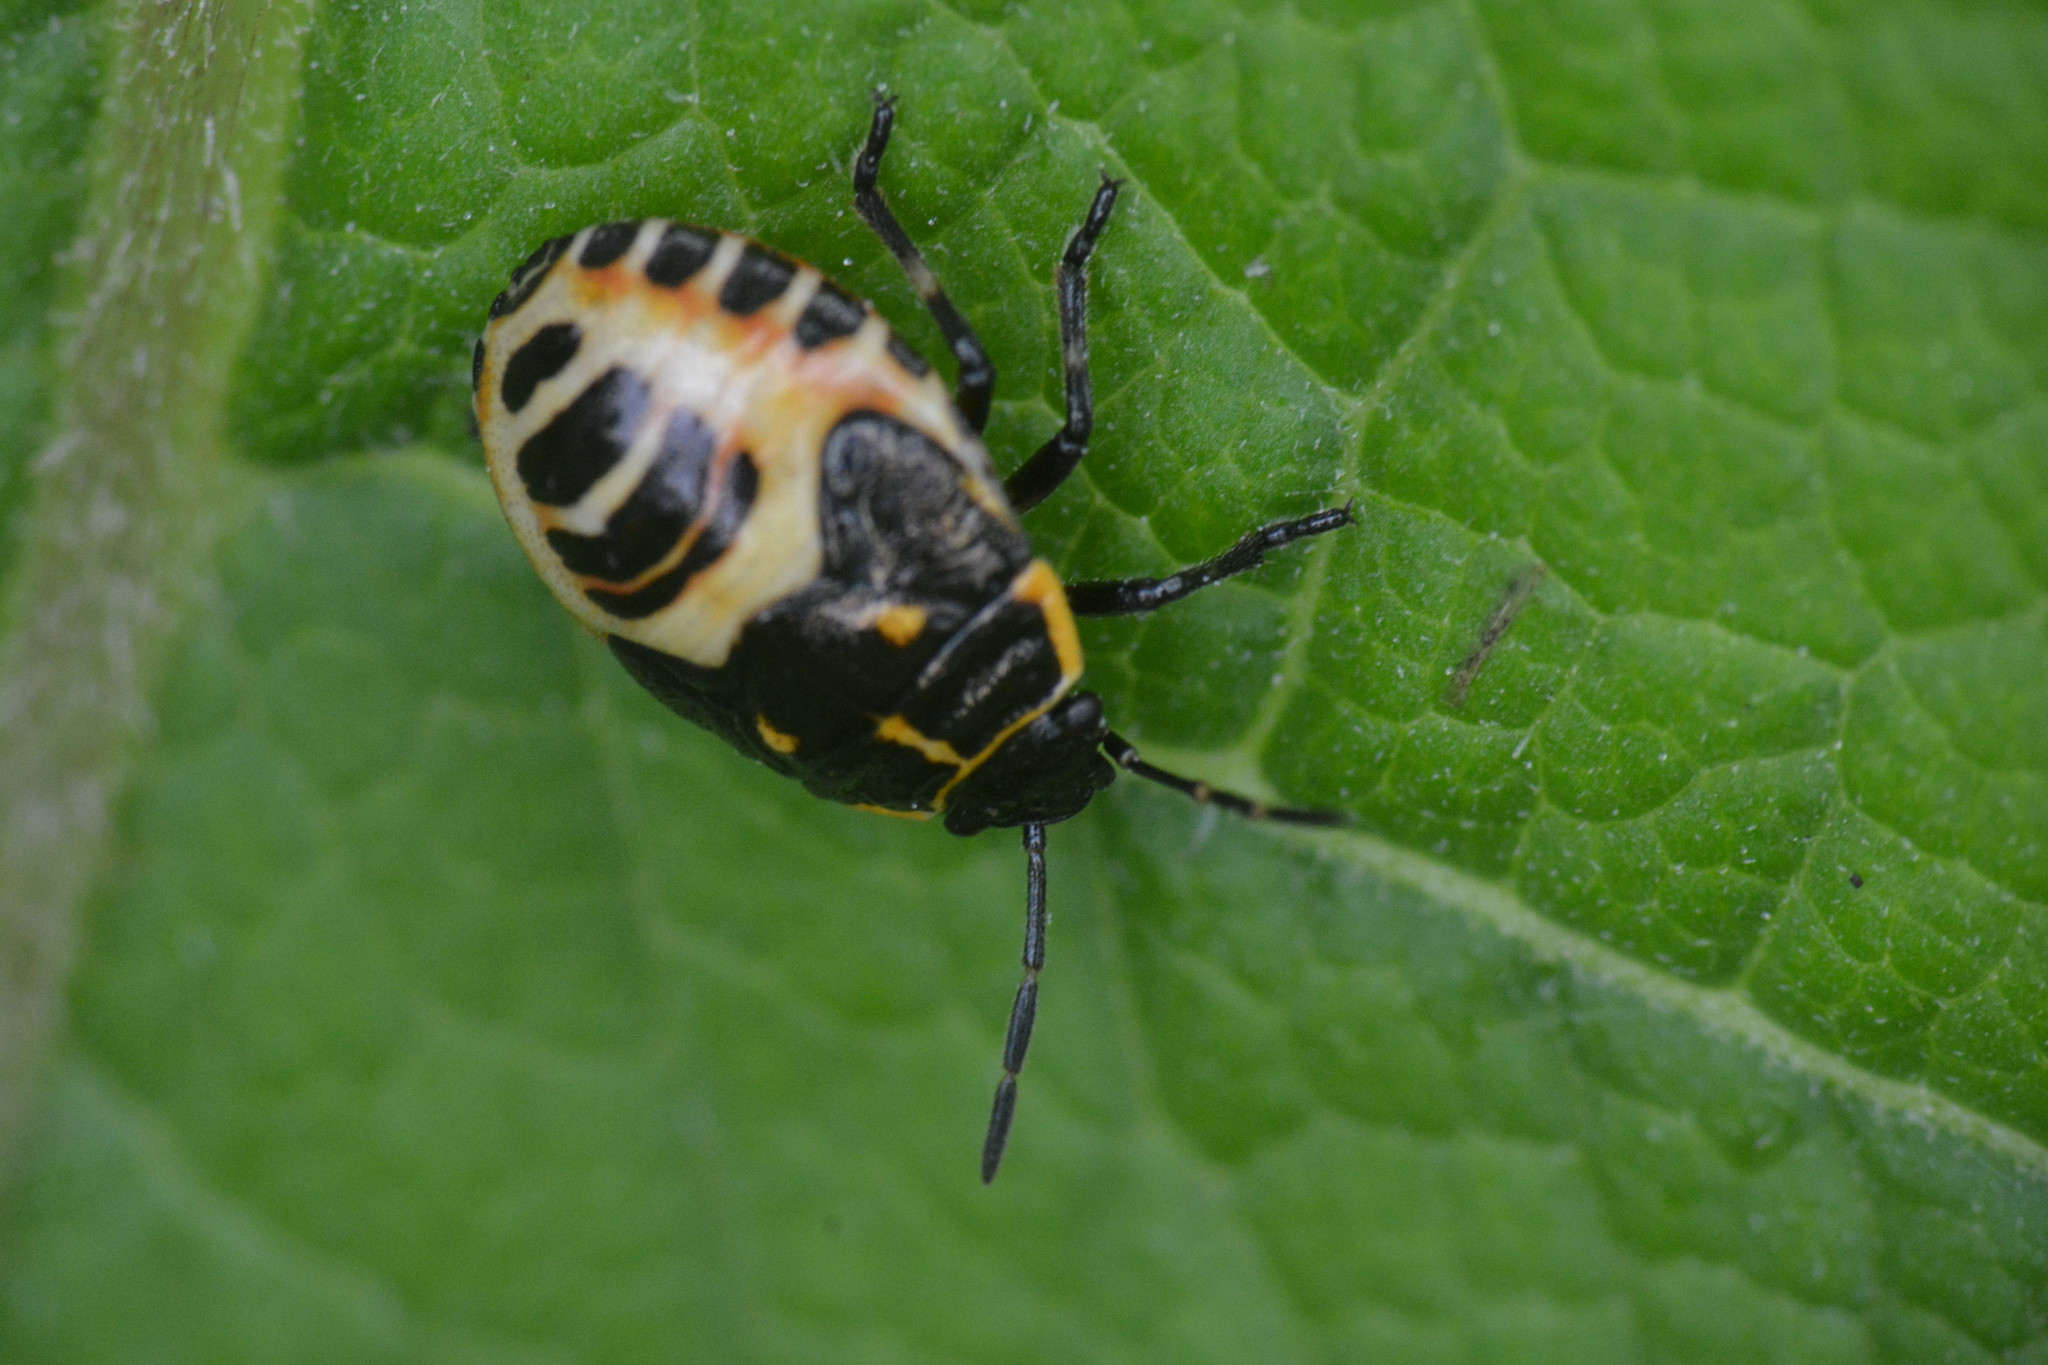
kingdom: Animalia
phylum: Arthropoda
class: Insecta
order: Hemiptera
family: Pentatomidae
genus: Eurydema
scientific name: Eurydema oleracea
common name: Cabbage bug
